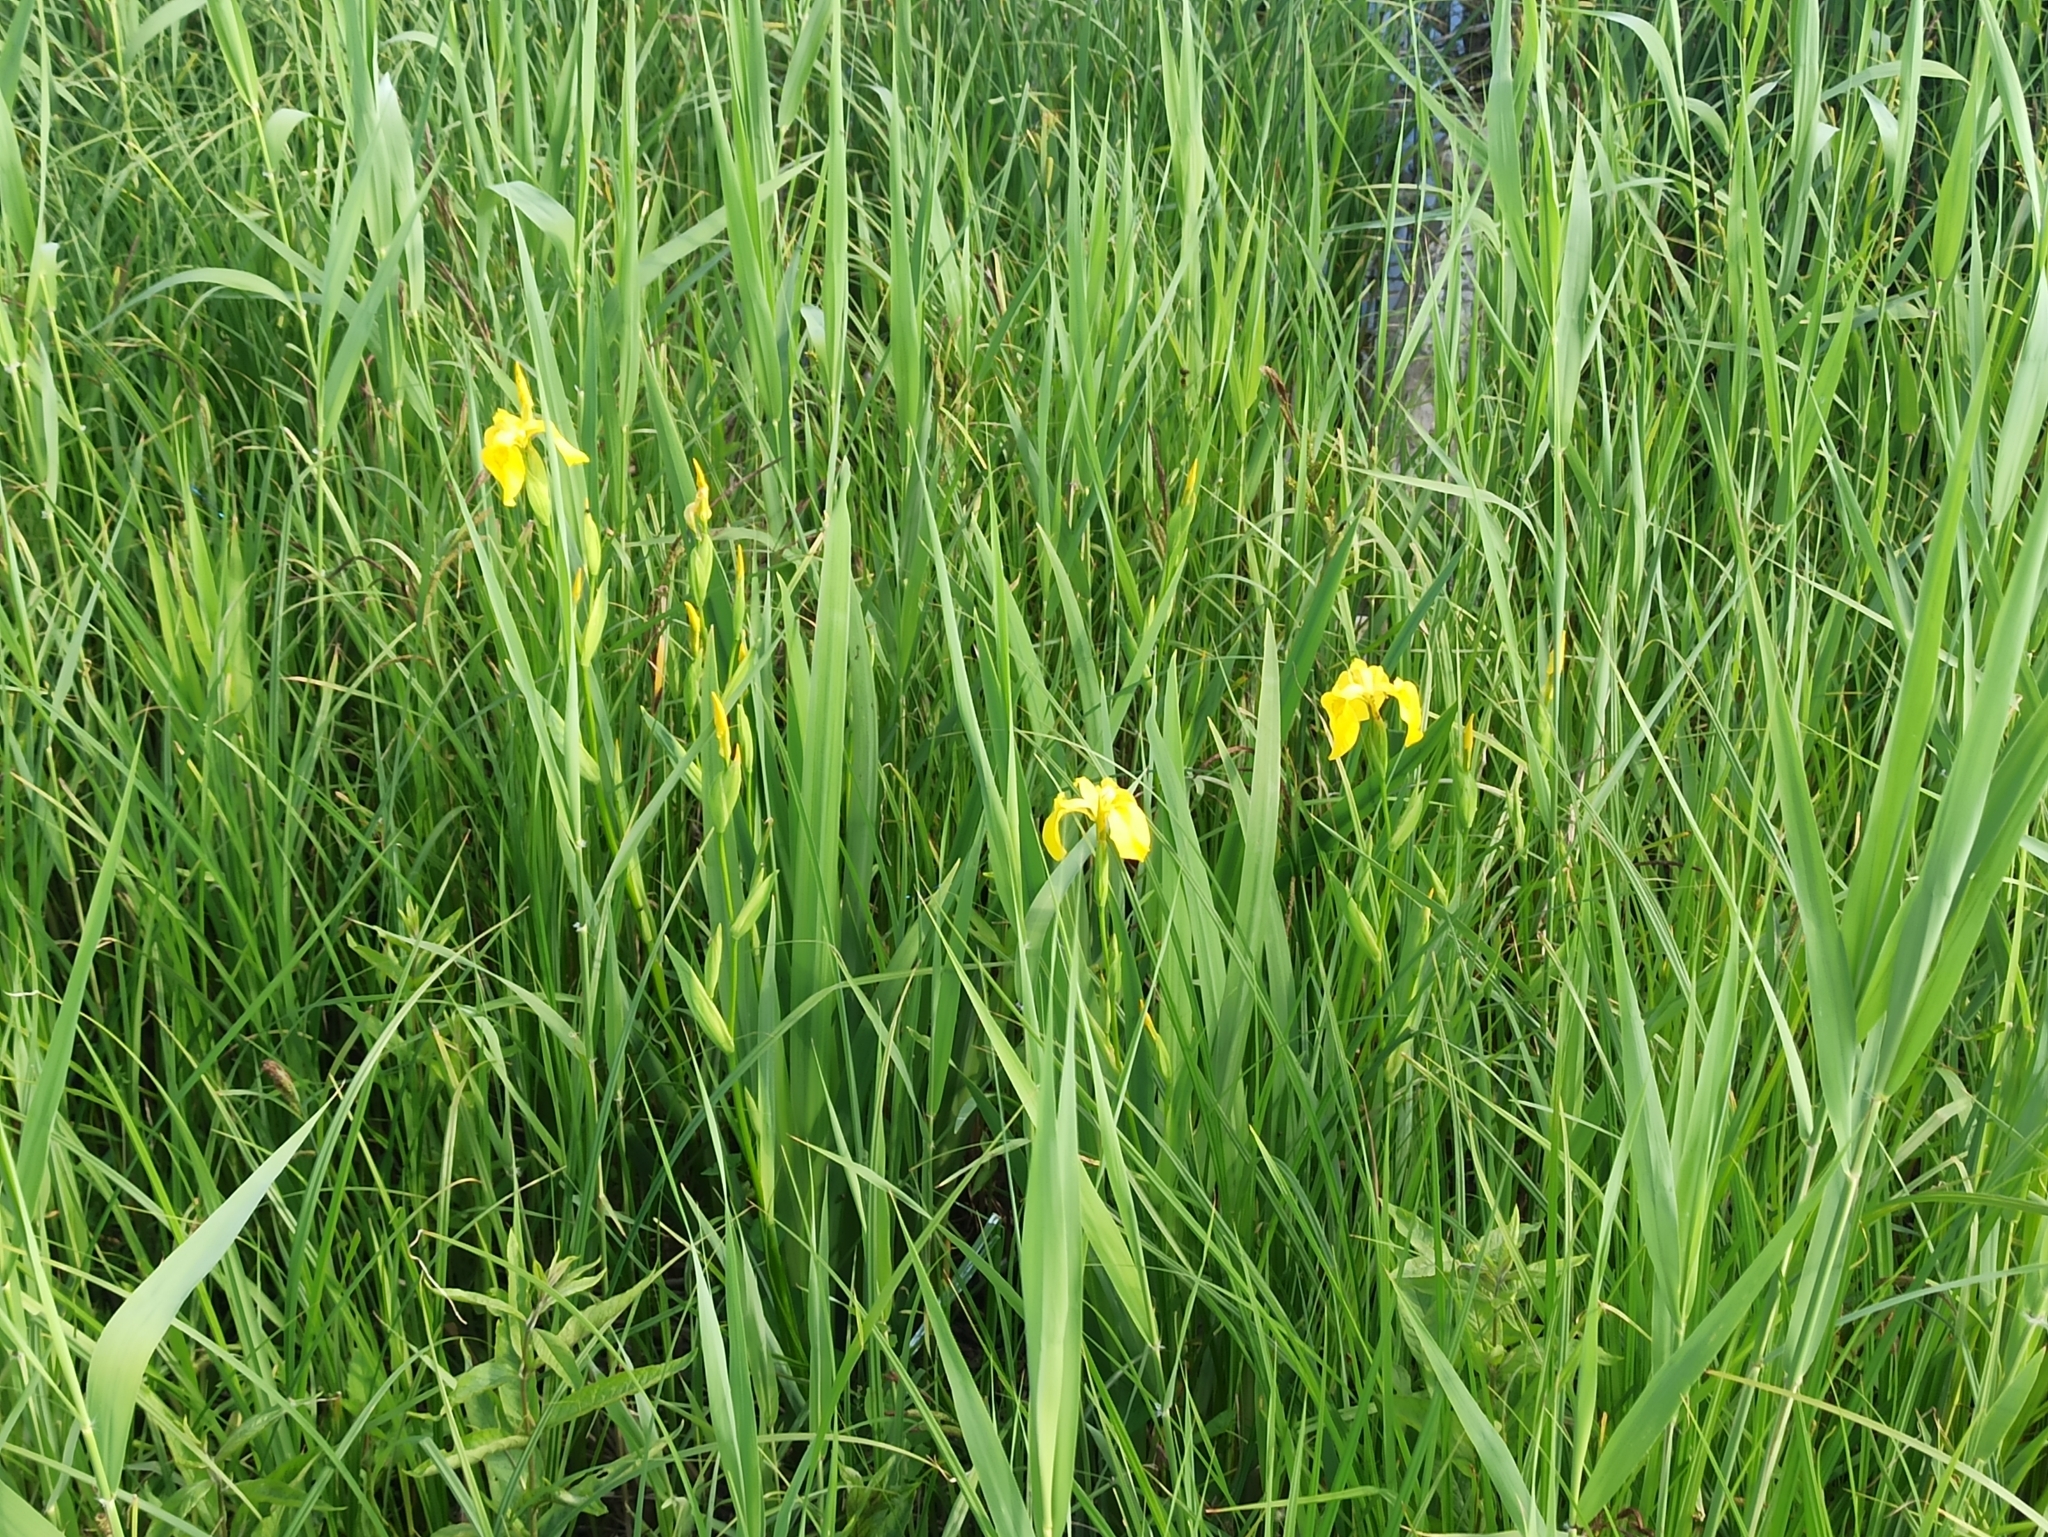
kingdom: Plantae
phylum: Tracheophyta
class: Liliopsida
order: Asparagales
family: Iridaceae
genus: Iris
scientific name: Iris pseudacorus
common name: Yellow flag
